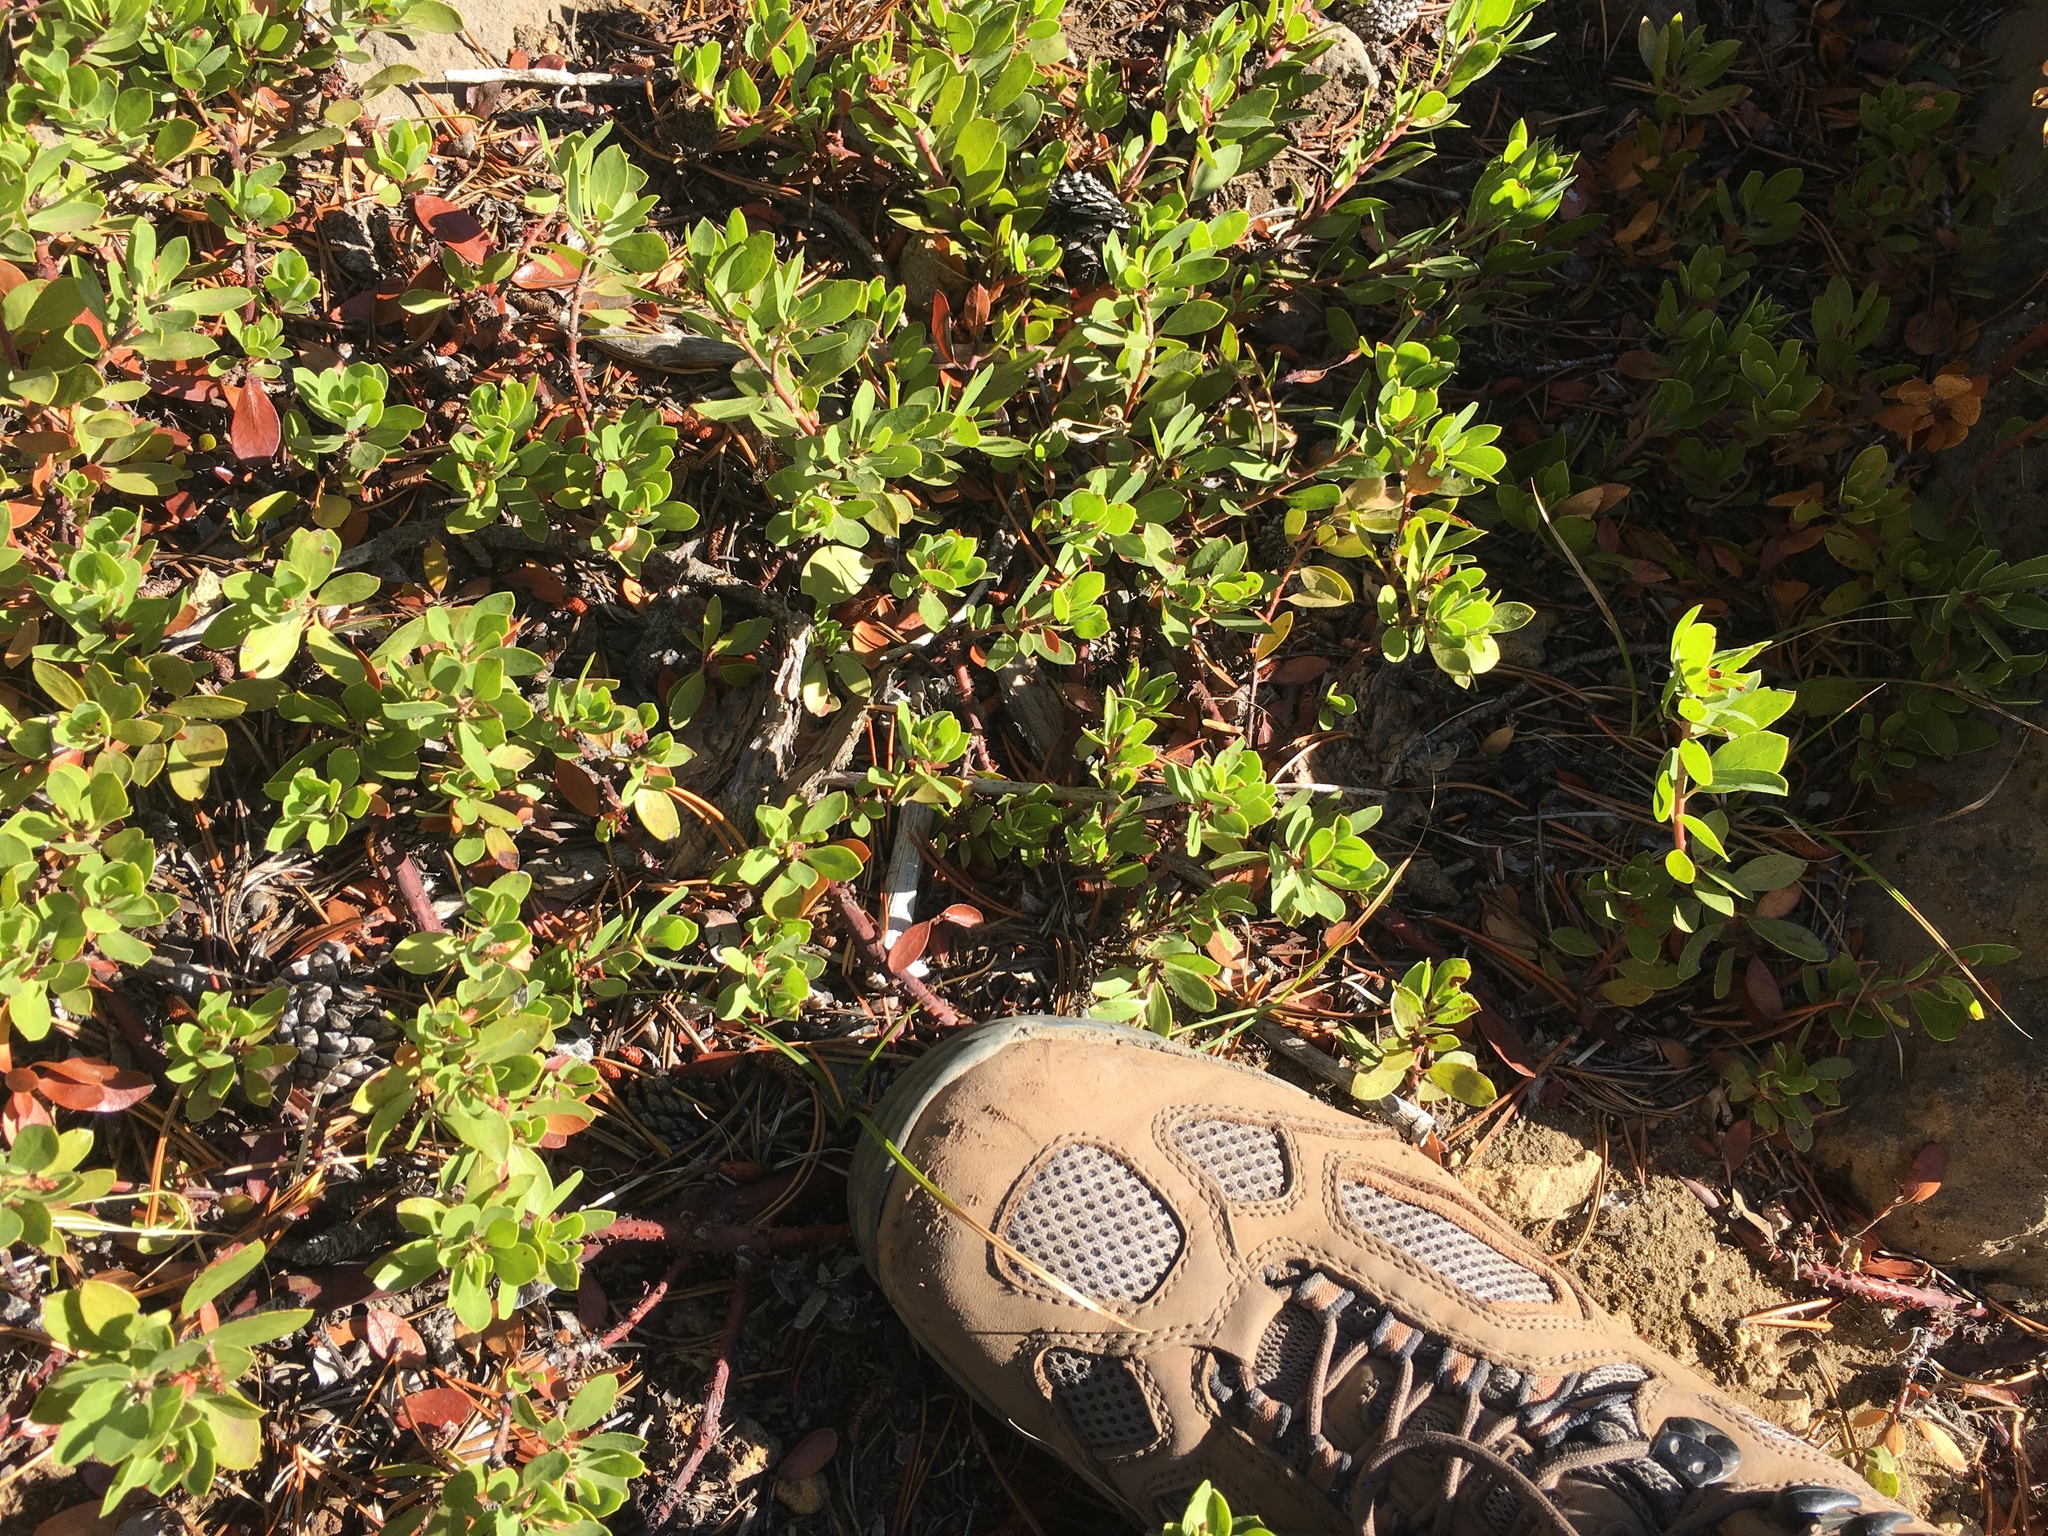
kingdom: Plantae
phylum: Tracheophyta
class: Magnoliopsida
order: Ericales
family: Ericaceae
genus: Arctostaphylos
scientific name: Arctostaphylos nevadensis
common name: Pinemat manzanita
